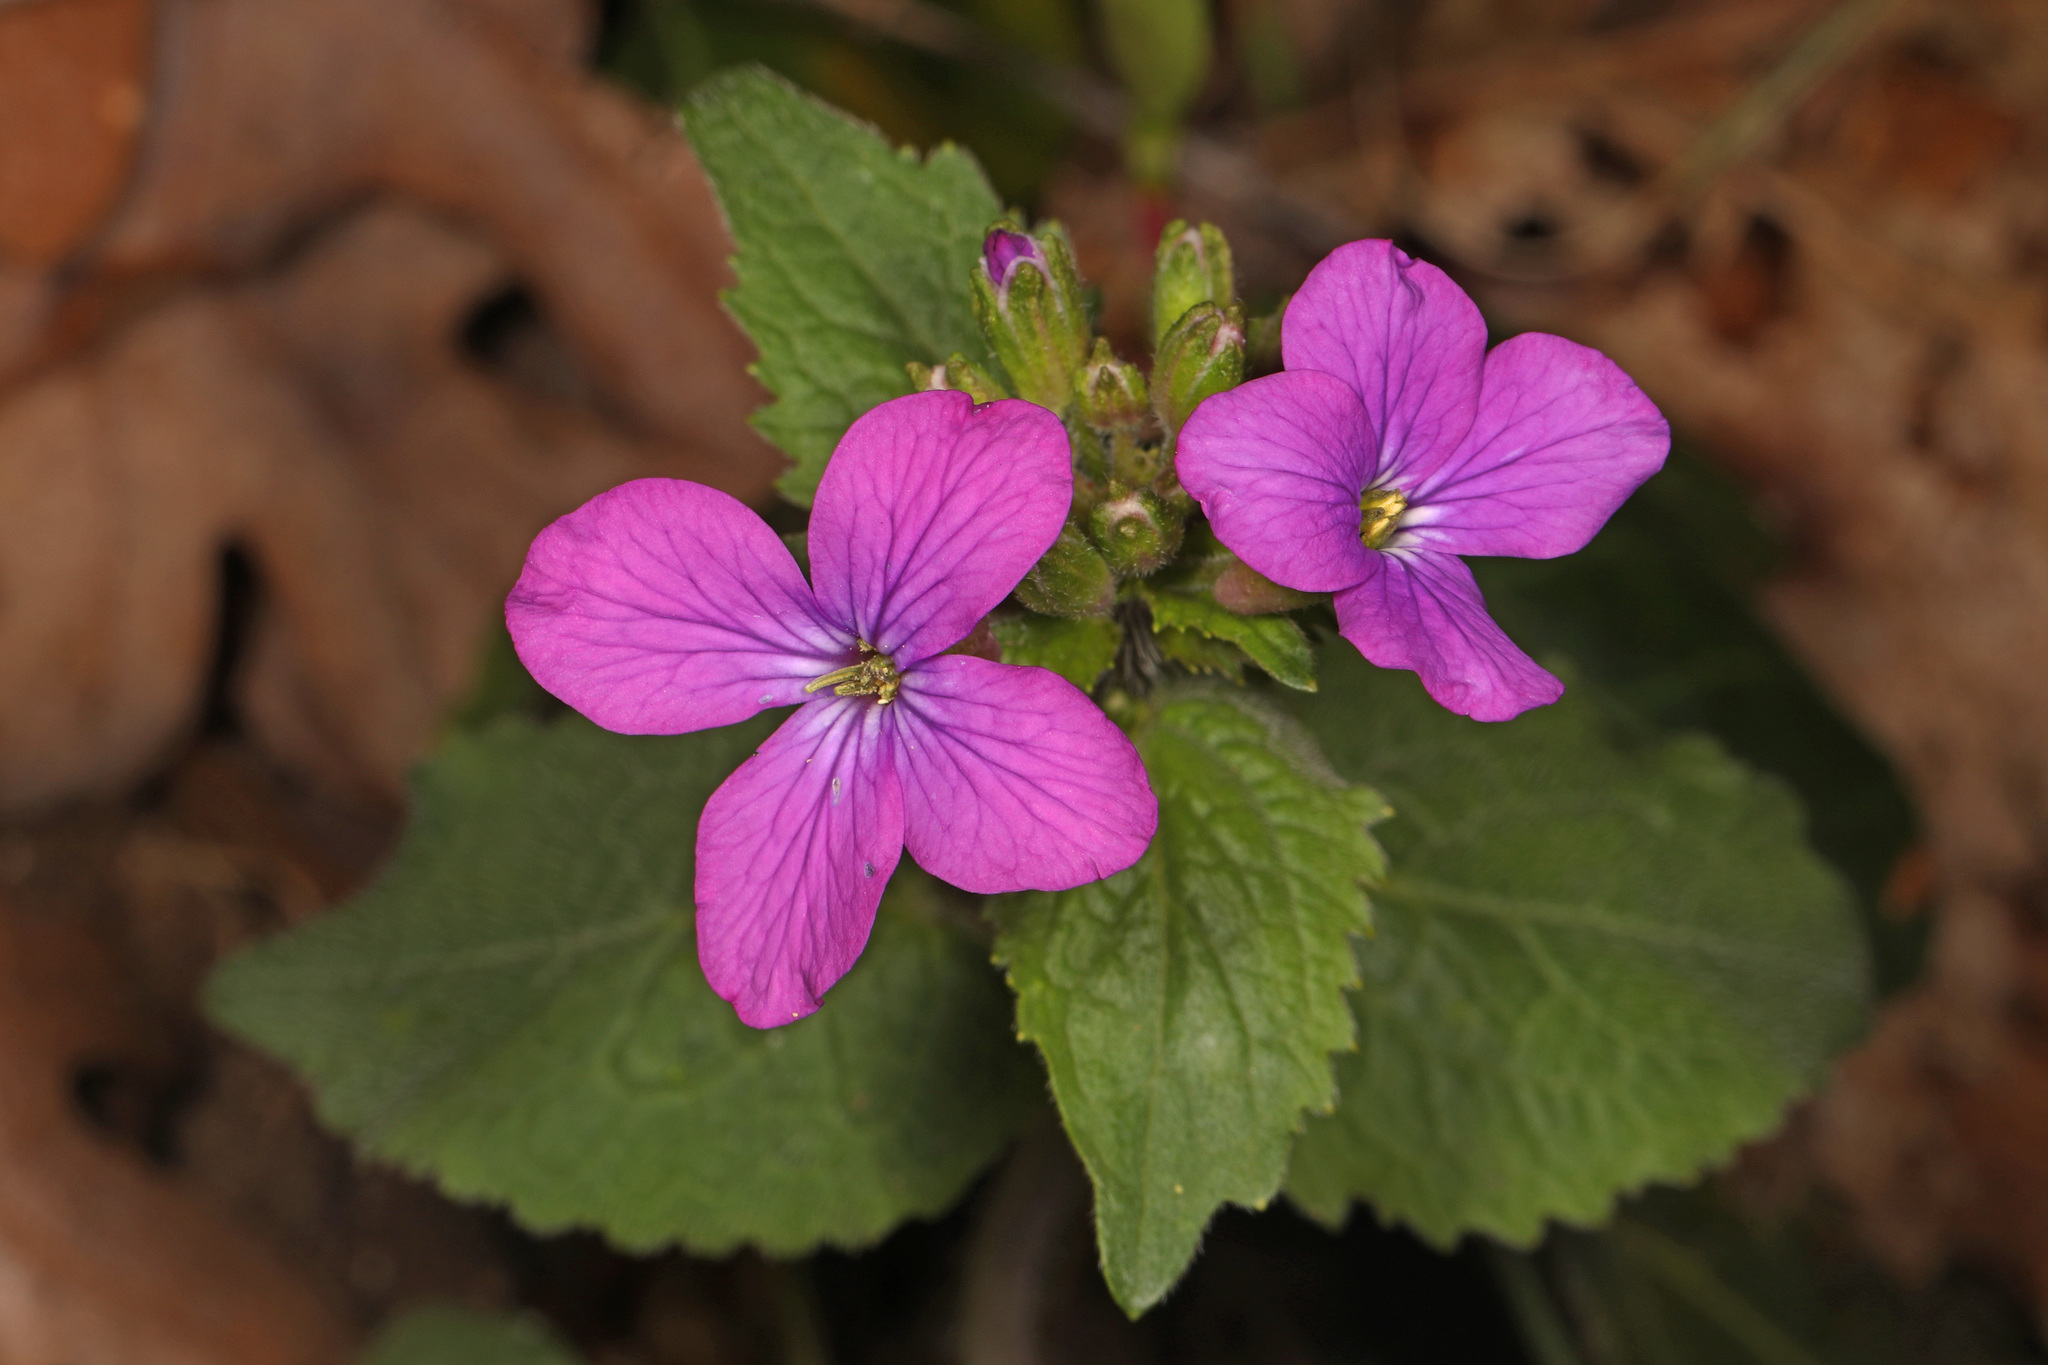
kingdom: Plantae
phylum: Tracheophyta
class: Magnoliopsida
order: Brassicales
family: Brassicaceae
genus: Lunaria
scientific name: Lunaria annua
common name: Honesty
